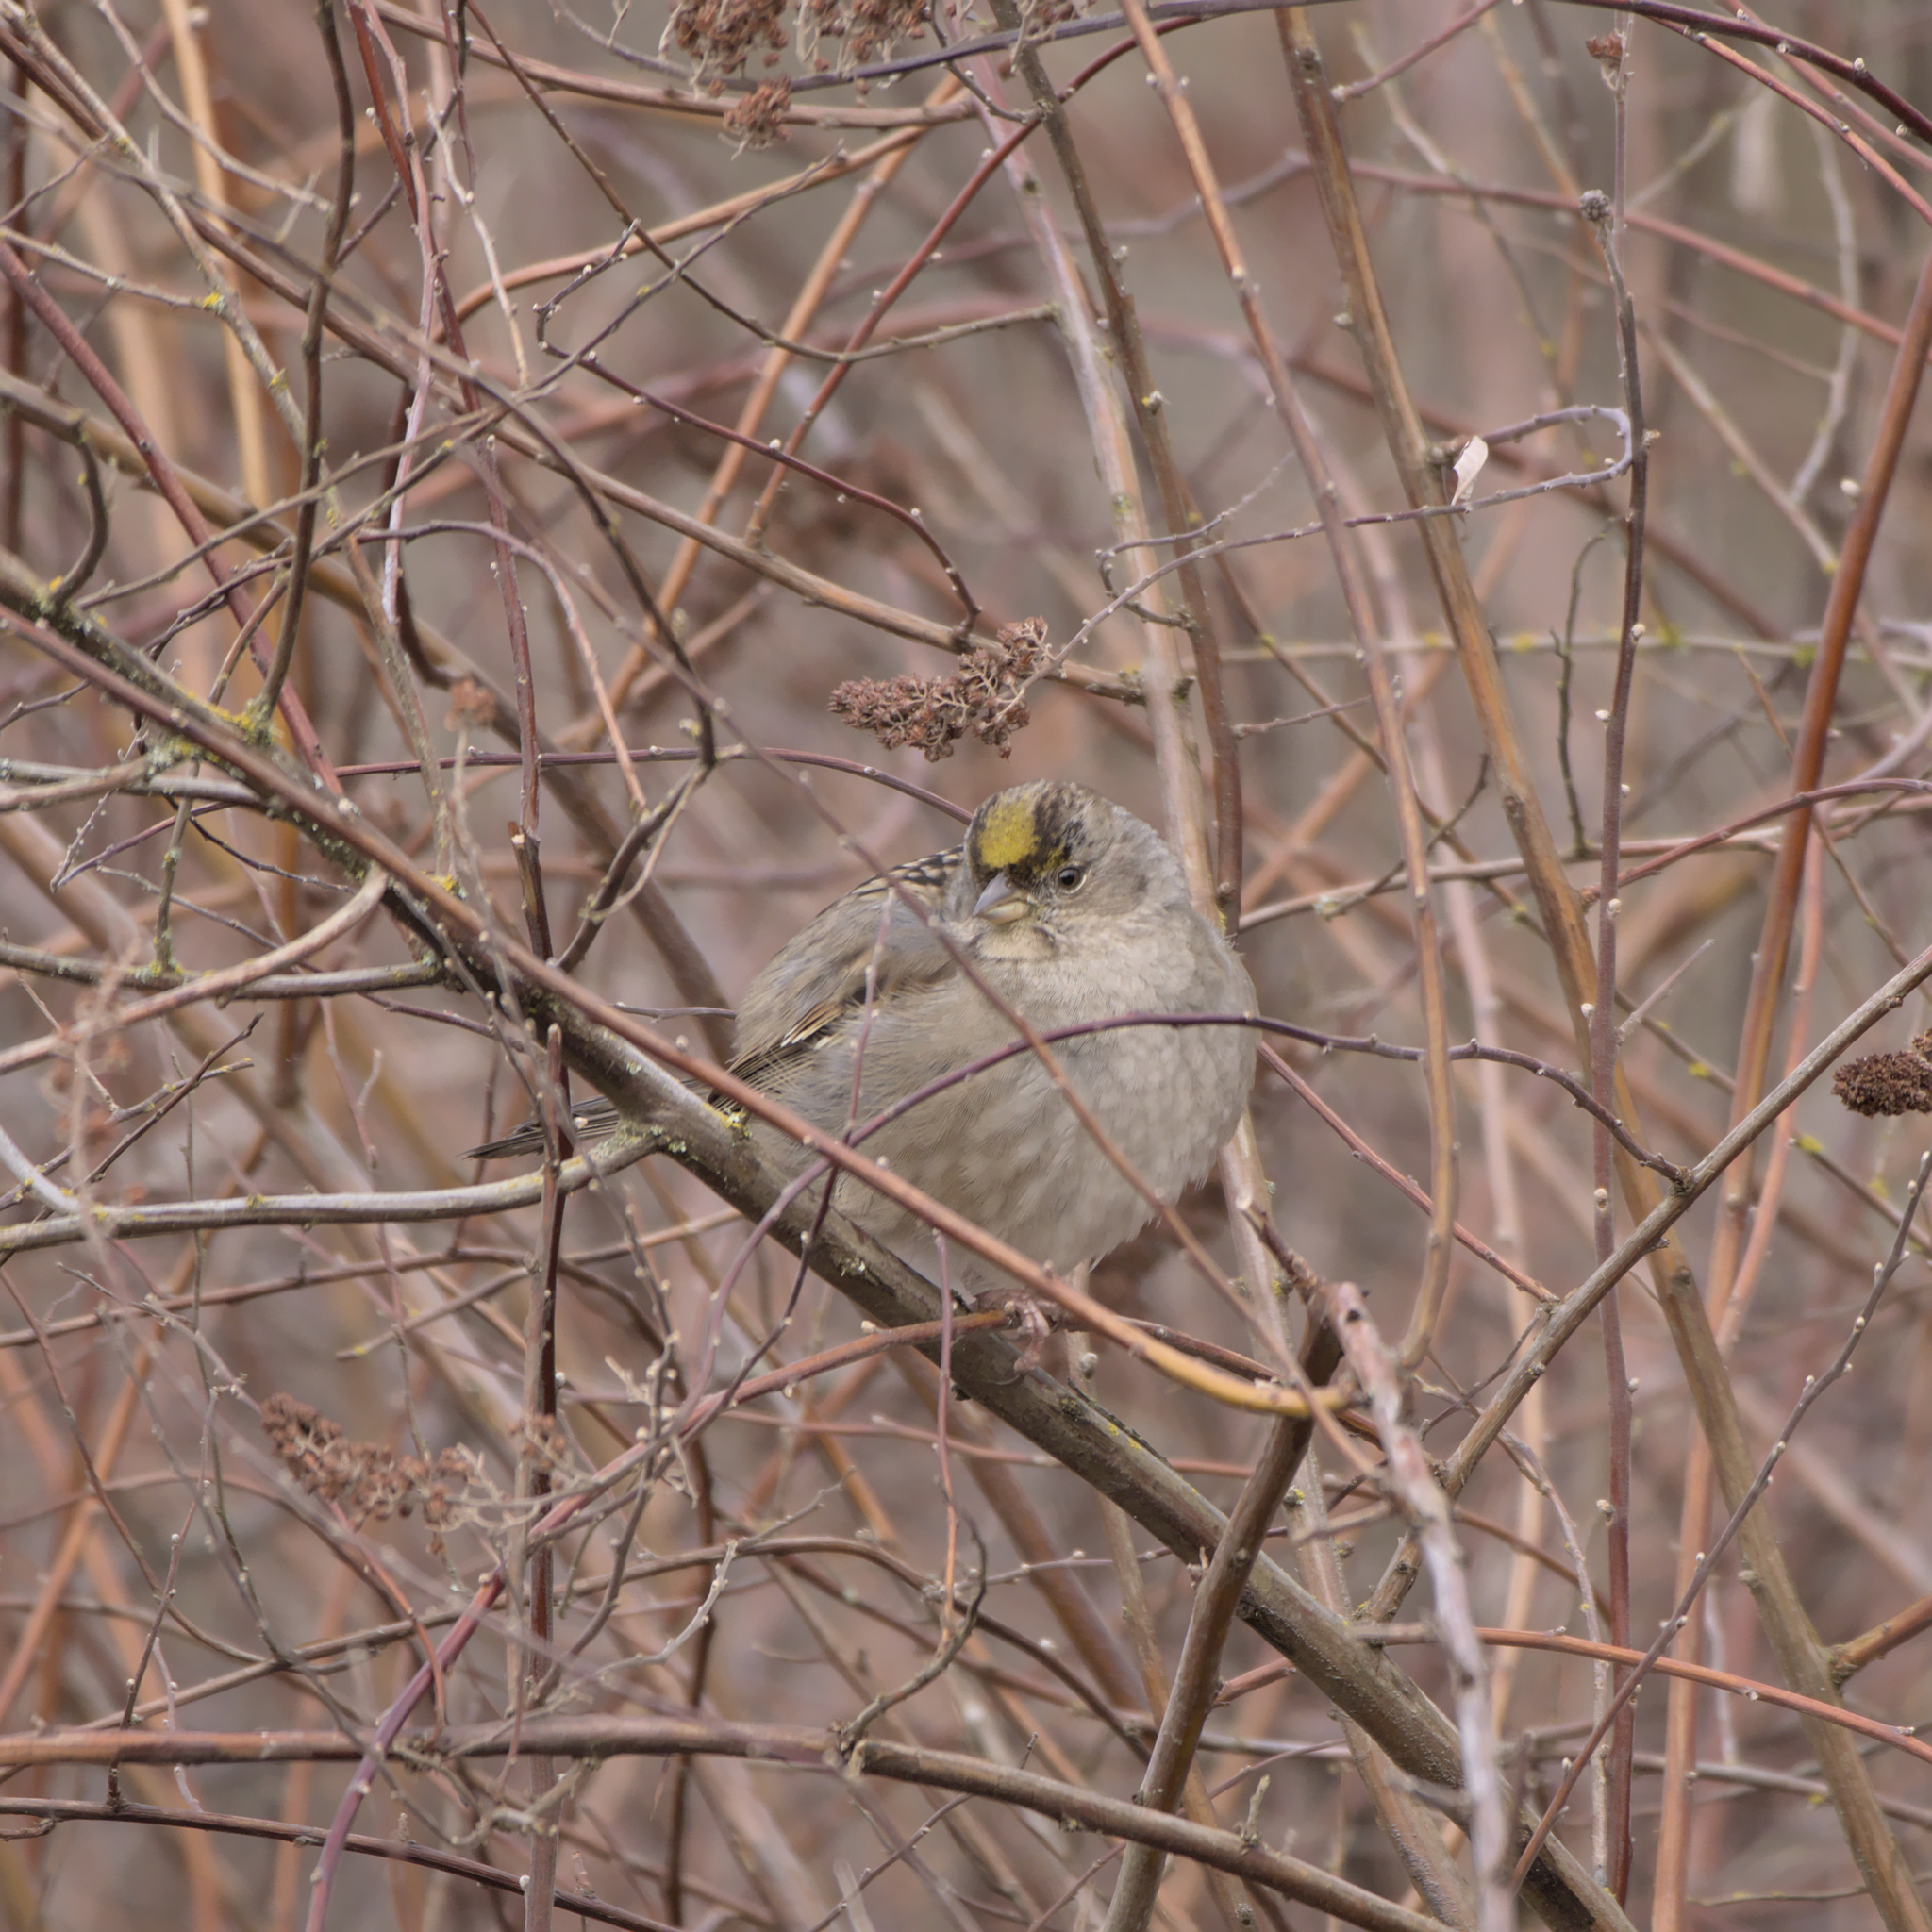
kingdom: Animalia
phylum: Chordata
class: Aves
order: Passeriformes
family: Passerellidae
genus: Zonotrichia
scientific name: Zonotrichia atricapilla
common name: Golden-crowned sparrow
